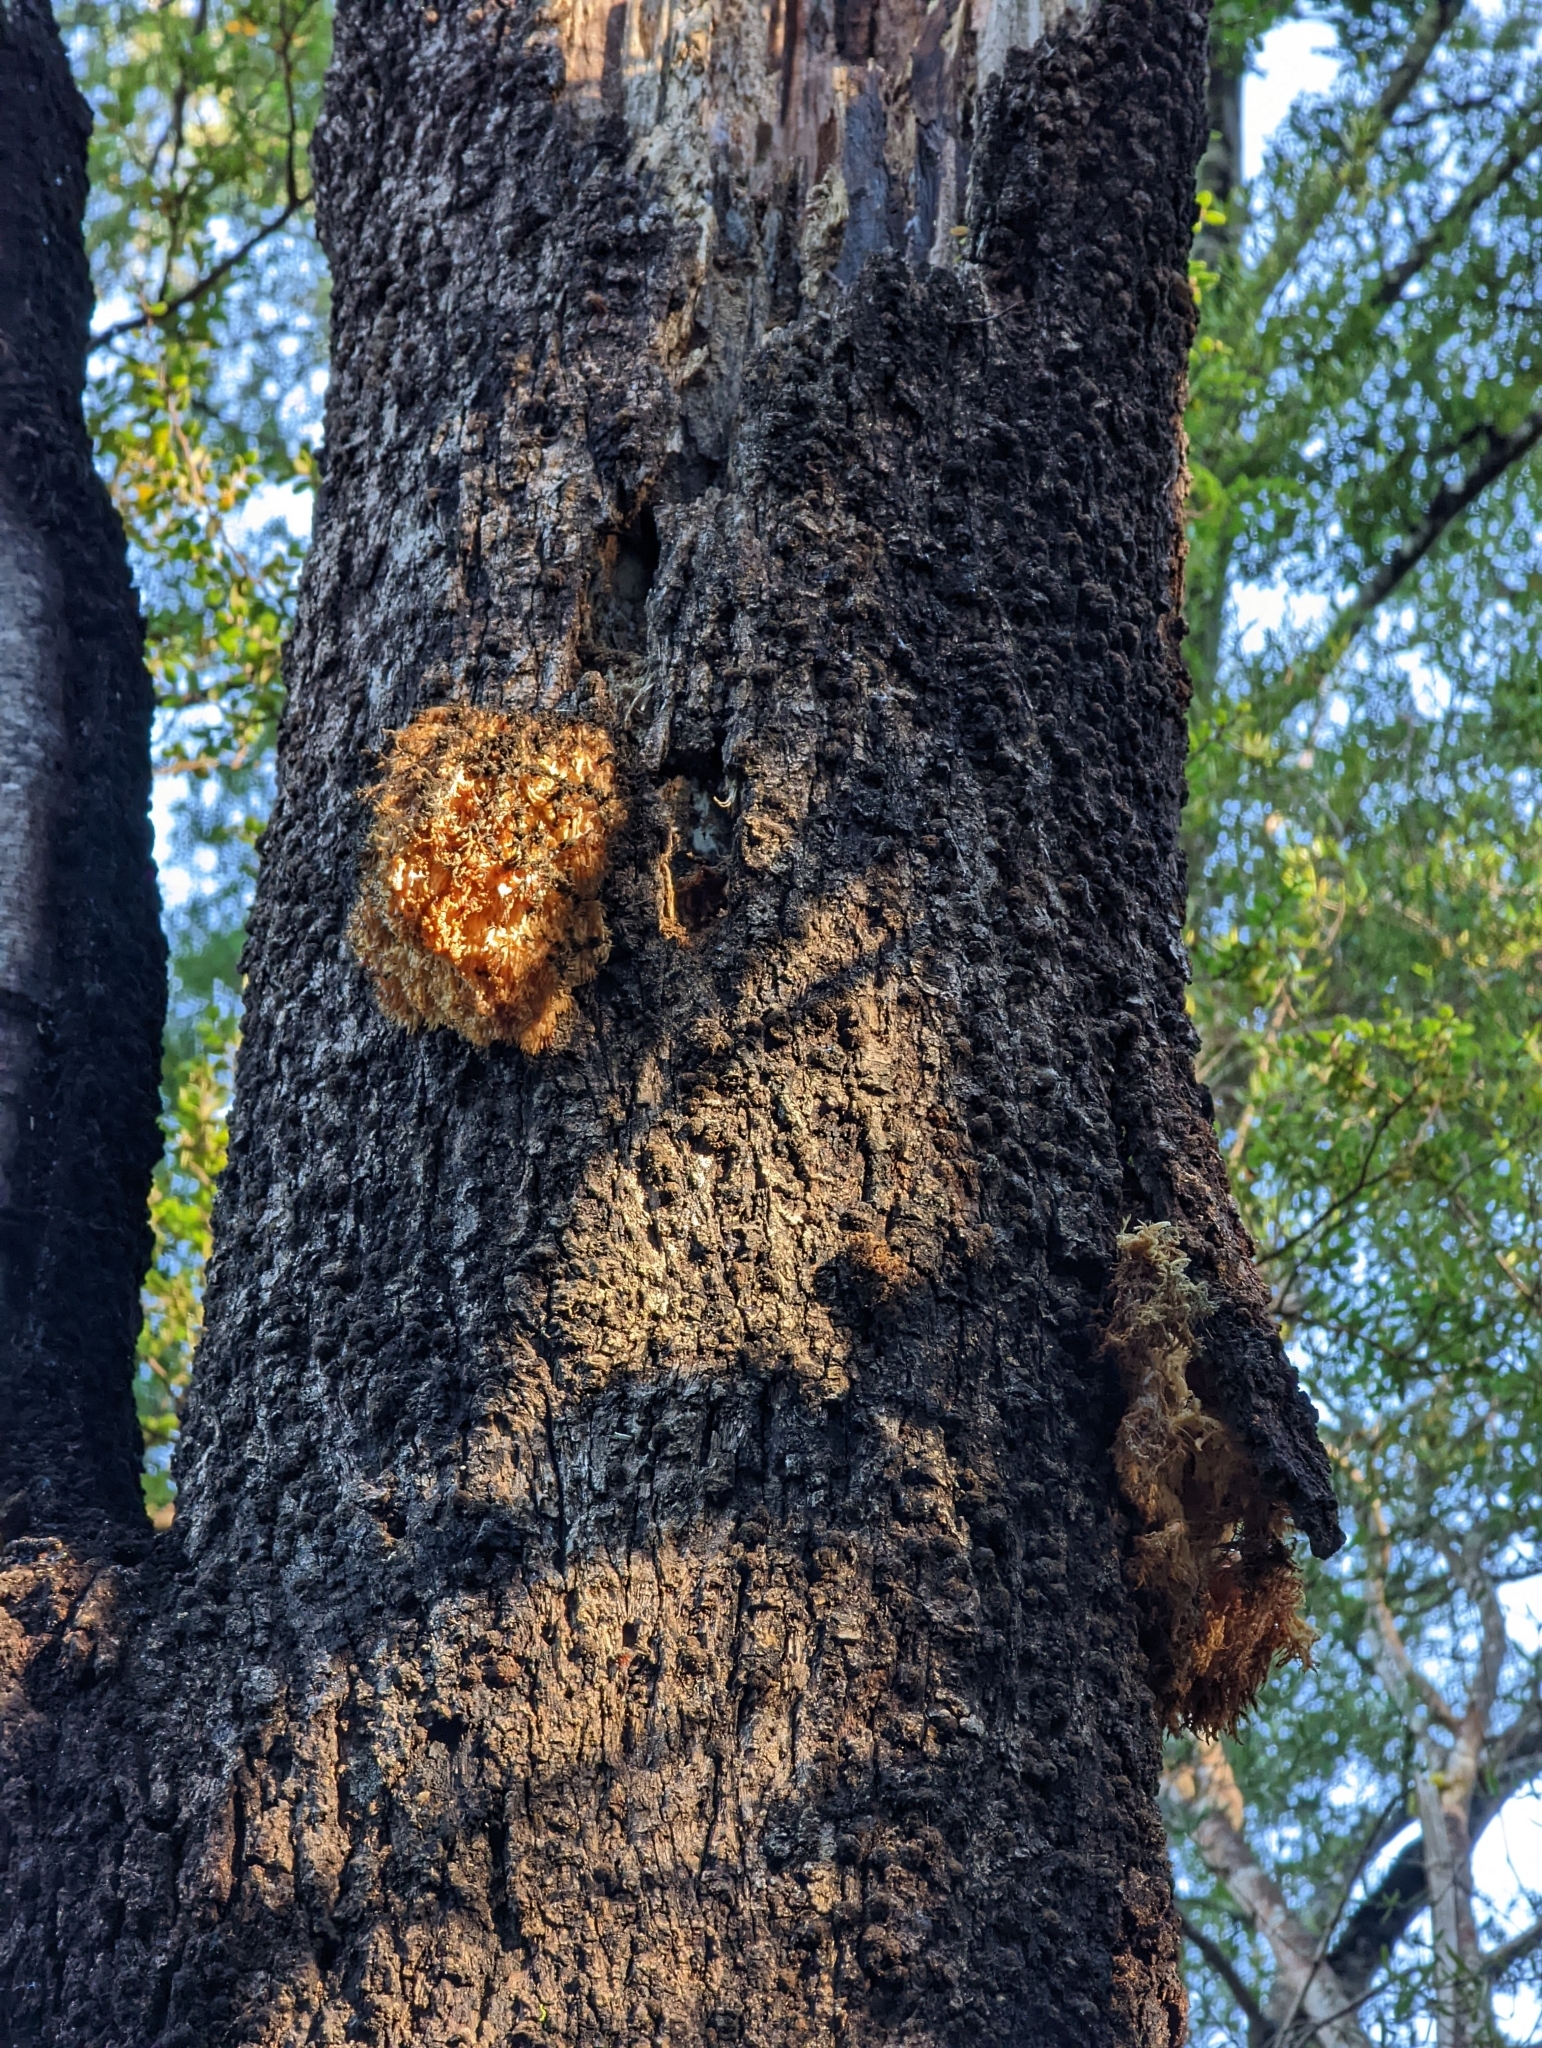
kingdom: Fungi
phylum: Basidiomycota
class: Agaricomycetes
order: Russulales
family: Hericiaceae
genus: Hericium
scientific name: Hericium novae-zealandiae
